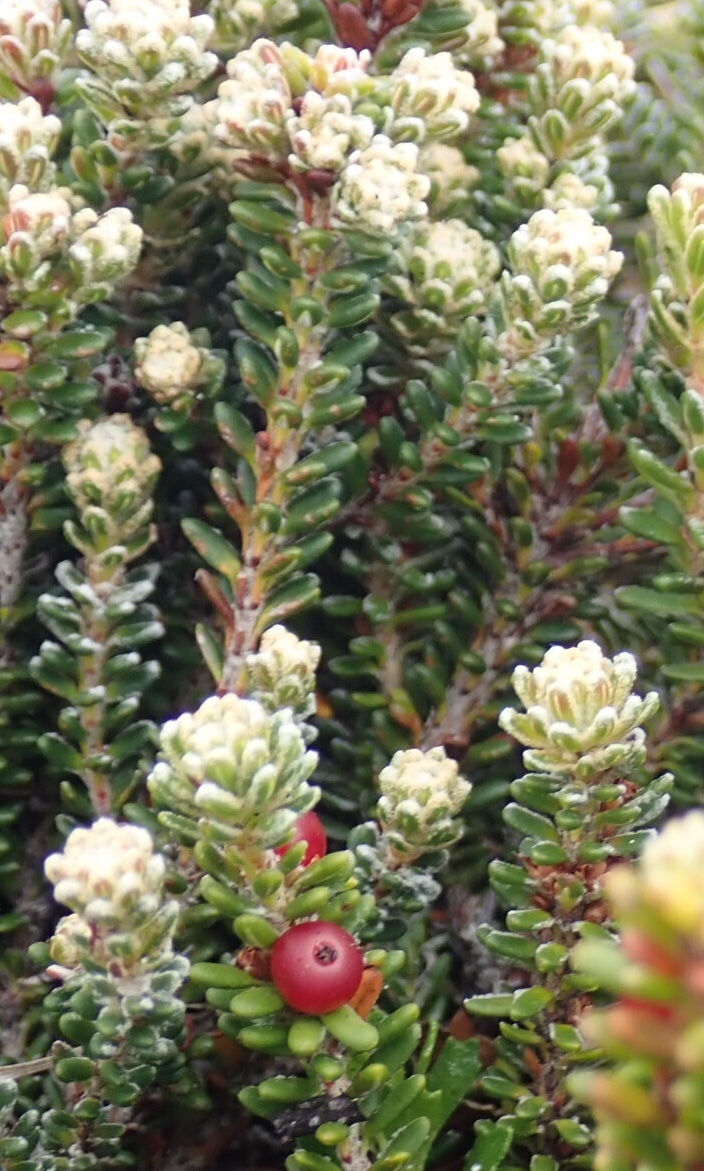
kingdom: Plantae
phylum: Tracheophyta
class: Magnoliopsida
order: Ericales
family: Ericaceae
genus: Empetrum
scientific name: Empetrum rubrum
